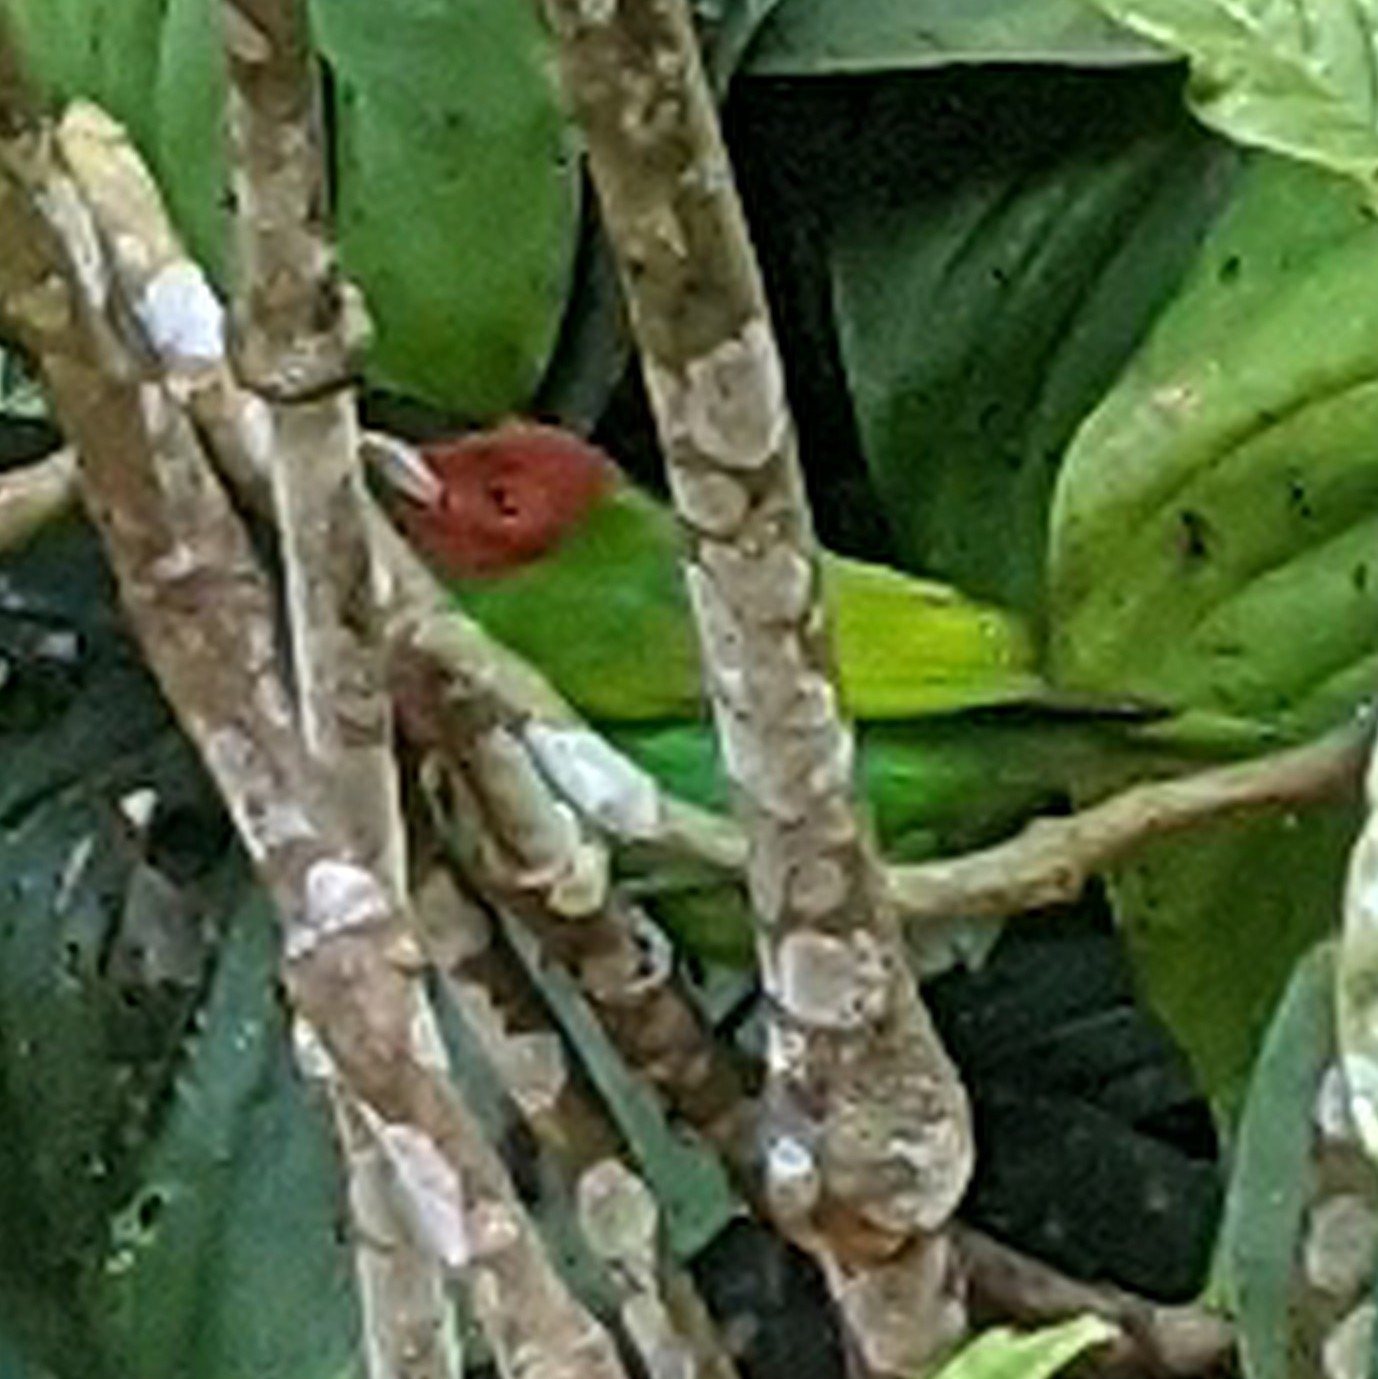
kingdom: Animalia
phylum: Chordata
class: Aves
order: Passeriformes
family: Thraupidae
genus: Tangara
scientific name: Tangara gyrola
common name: Bay-headed tanager
